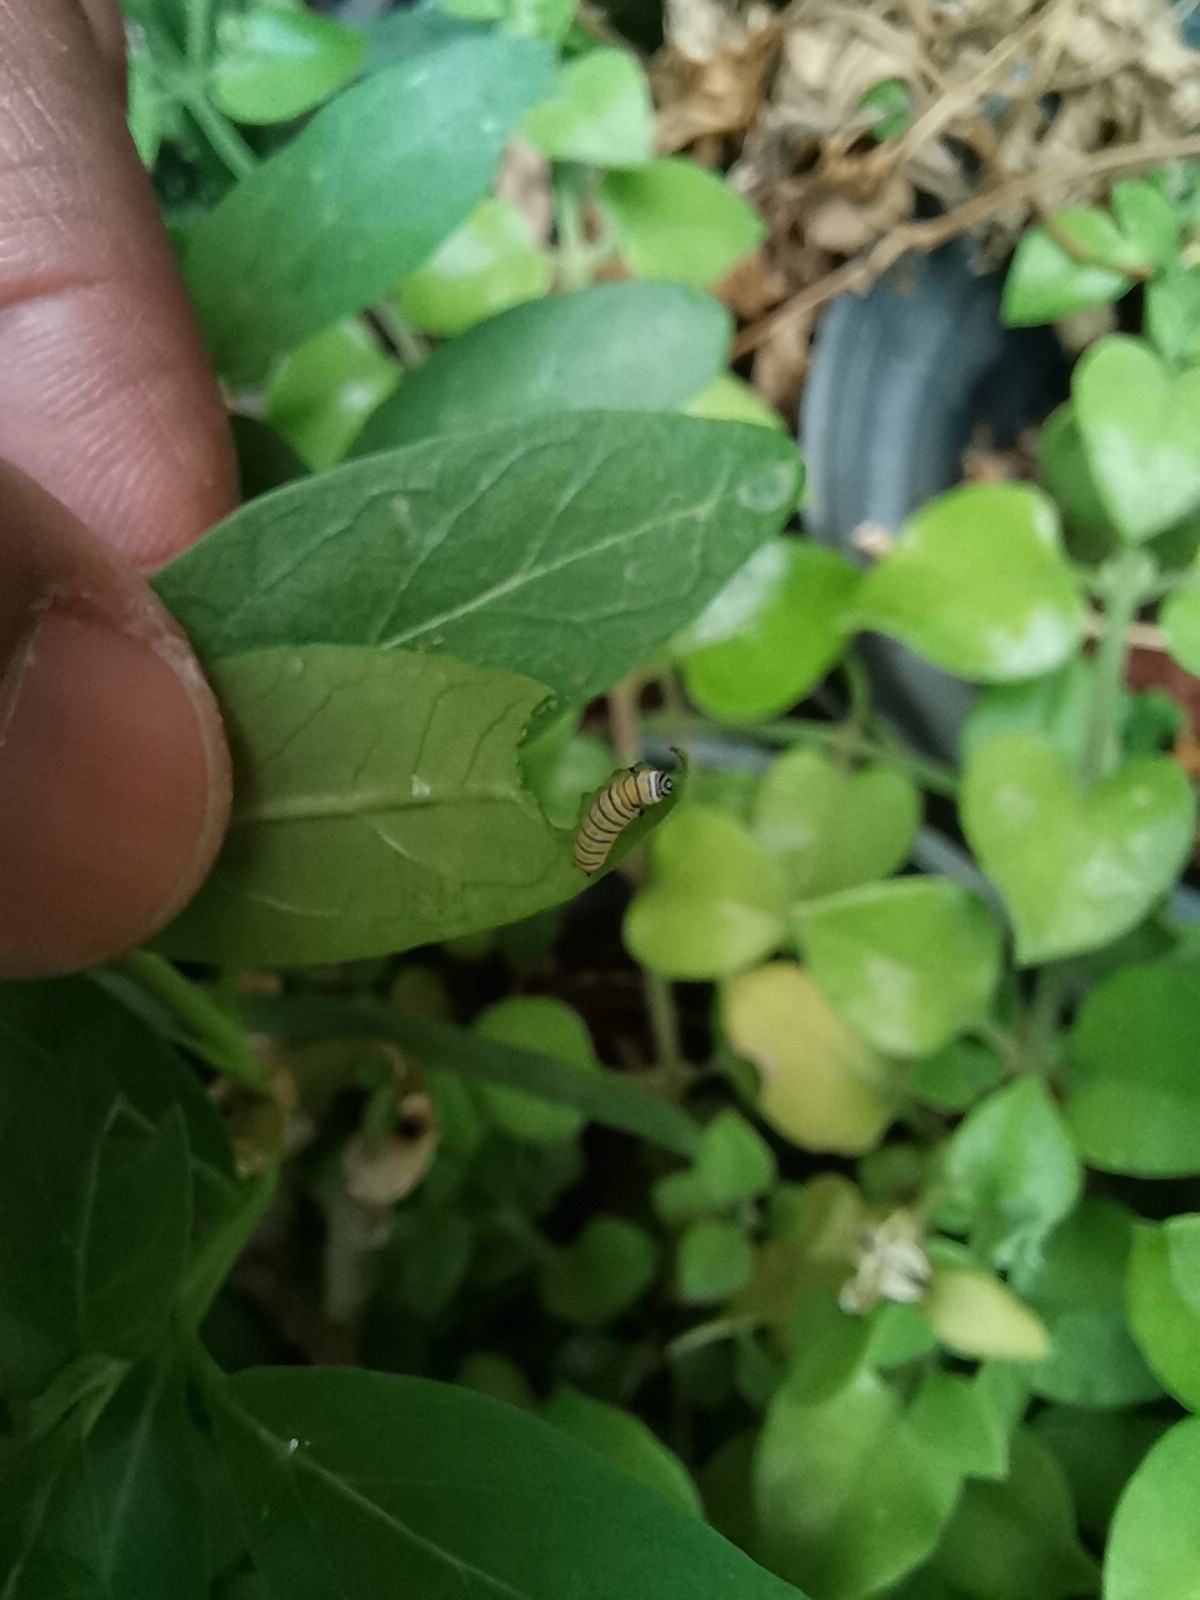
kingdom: Animalia
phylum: Arthropoda
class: Insecta
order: Lepidoptera
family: Nymphalidae
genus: Danaus
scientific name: Danaus plexippus
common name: Monarch
